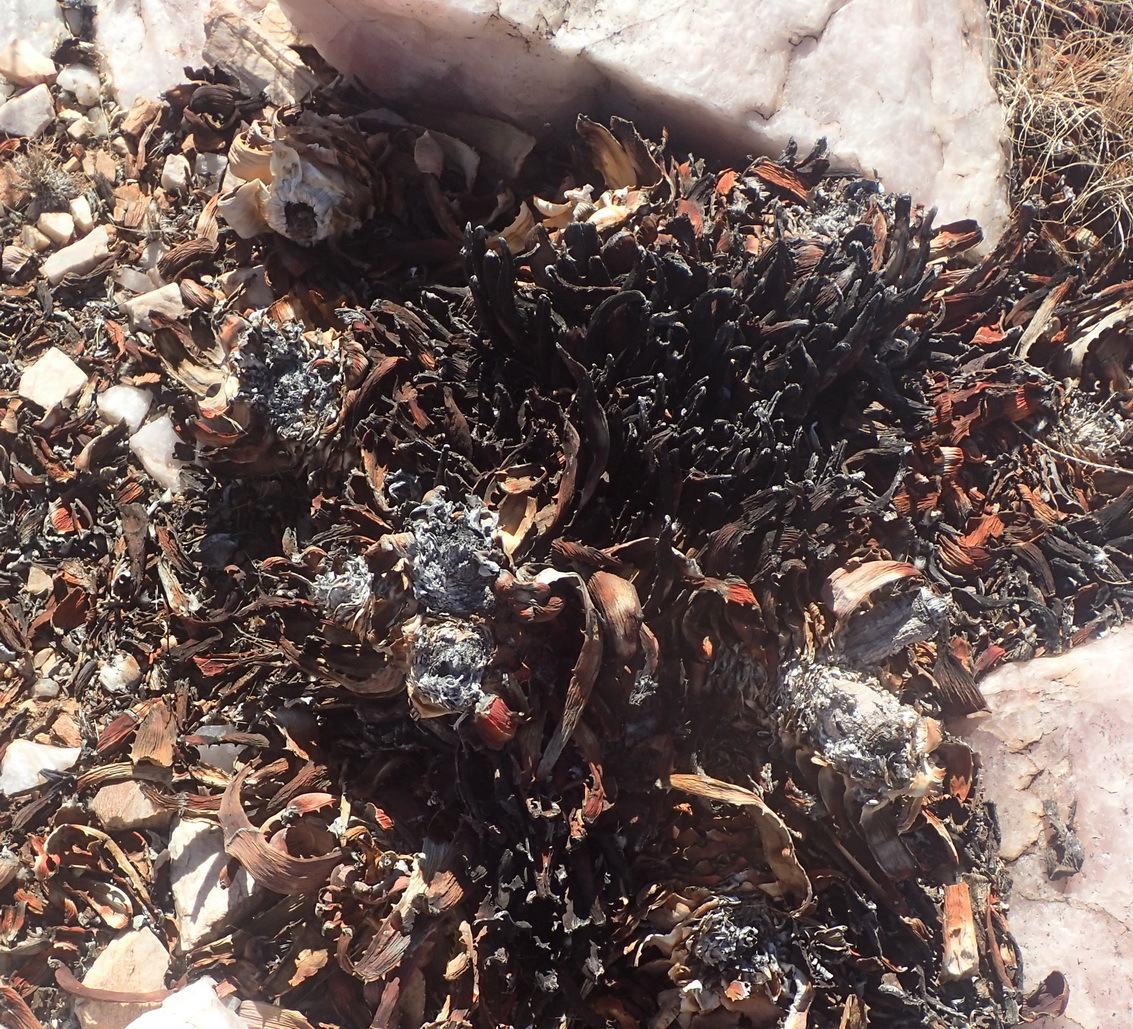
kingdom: Plantae
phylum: Tracheophyta
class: Liliopsida
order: Asparagales
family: Asphodelaceae
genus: Aloe
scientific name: Aloe claviflora
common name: Cannon aloe
